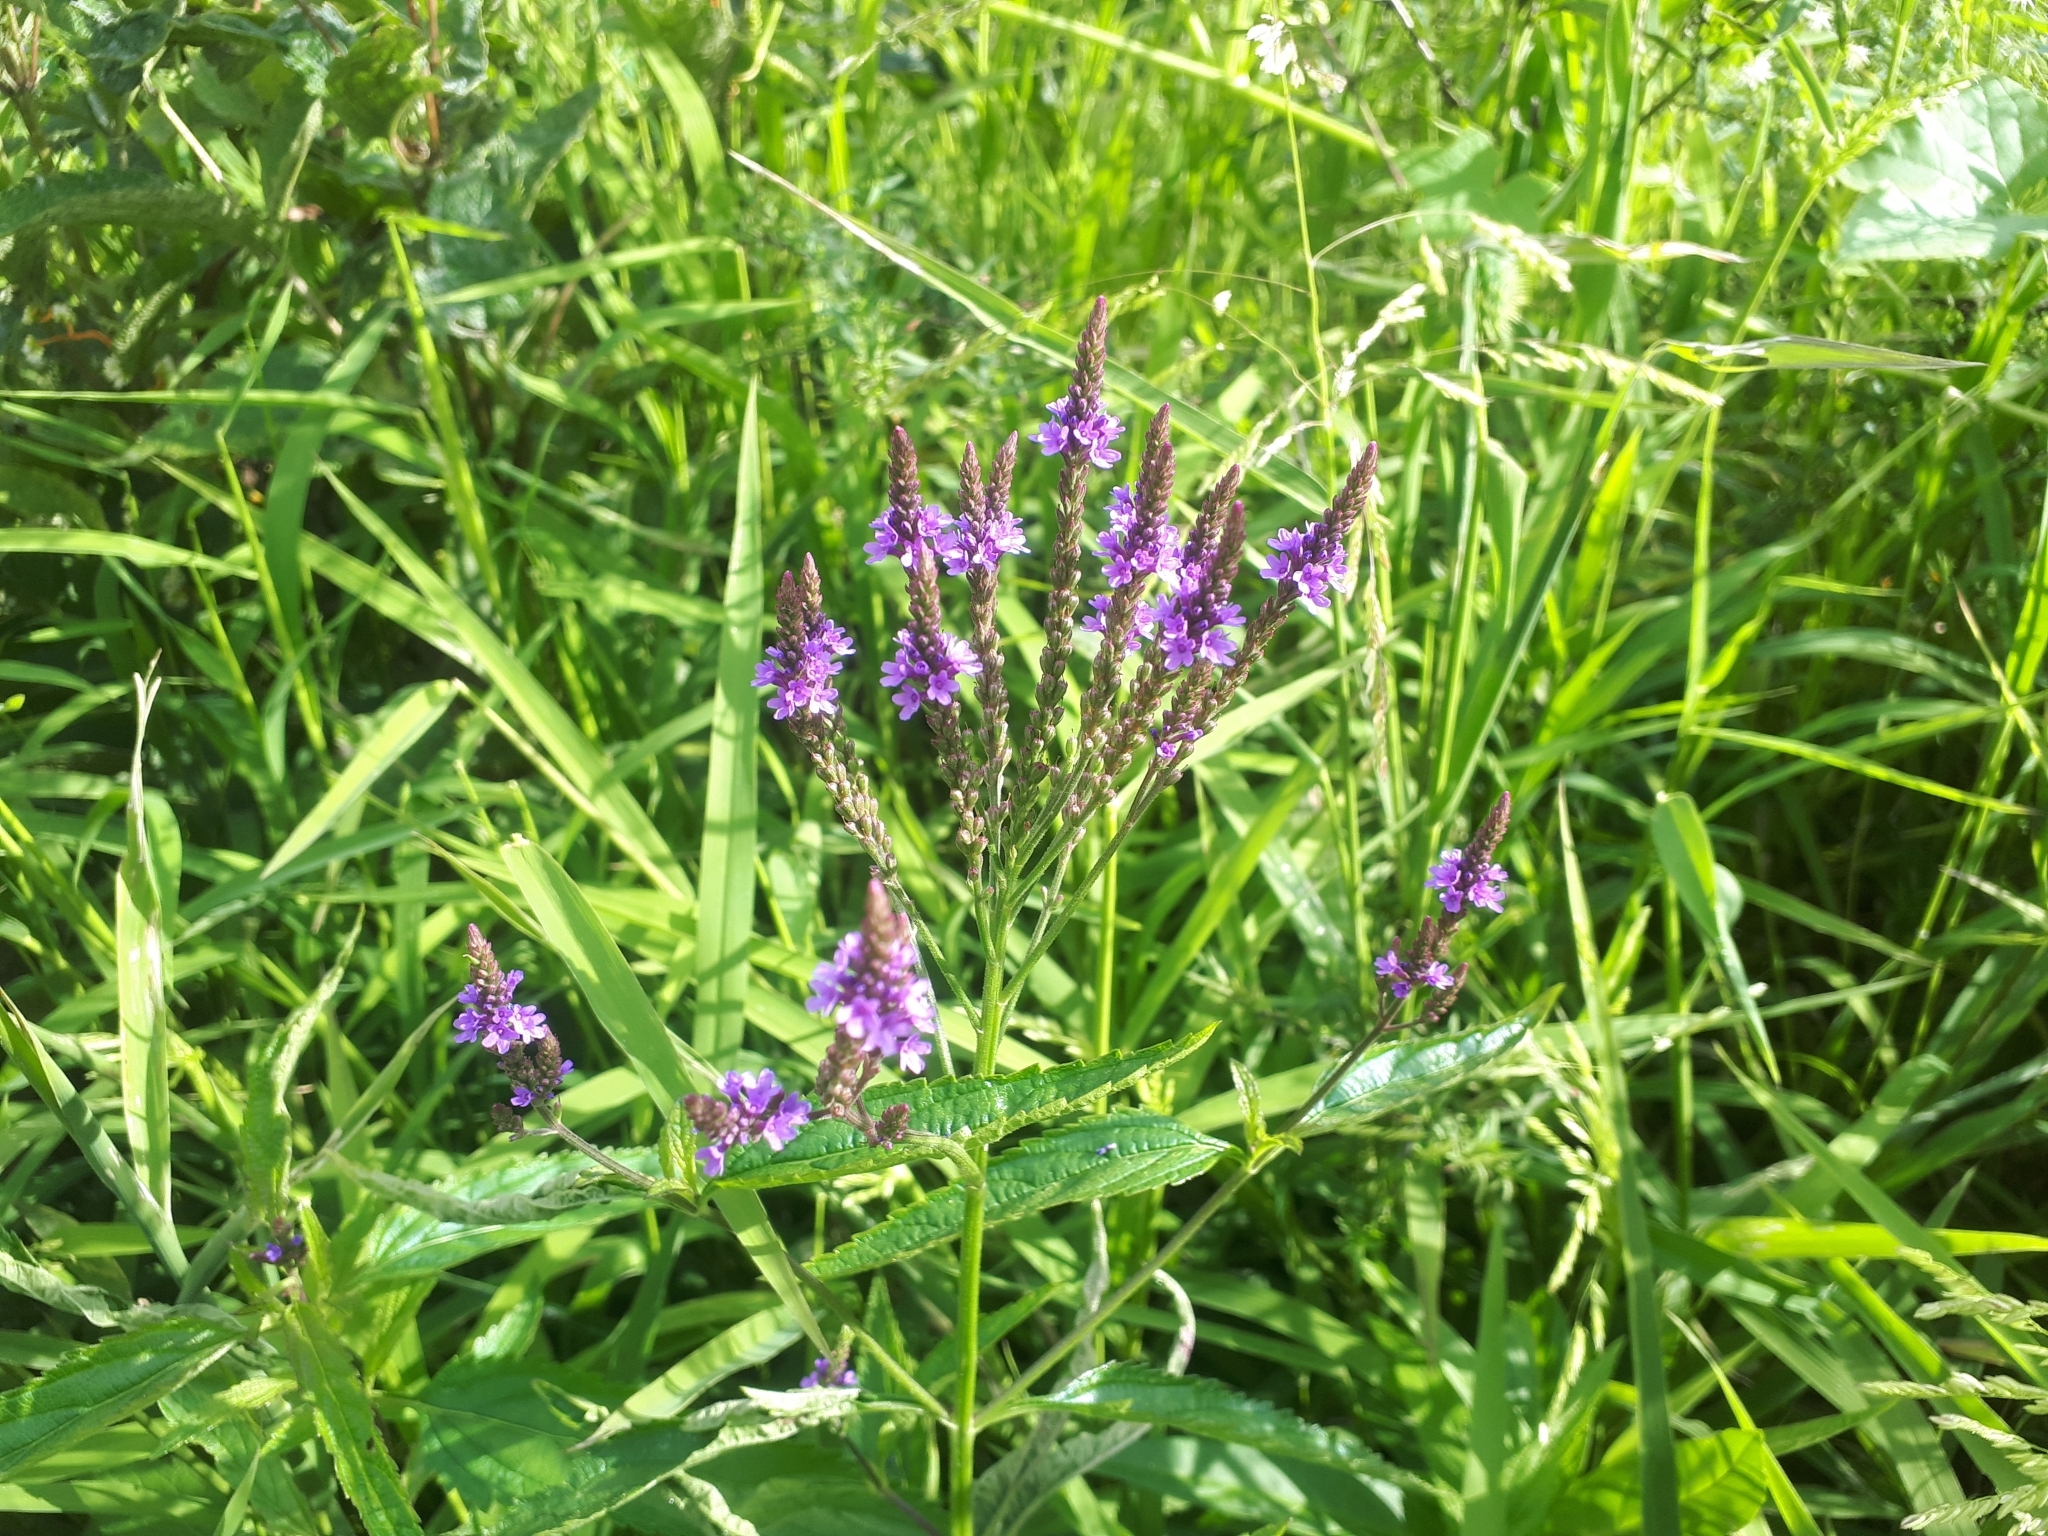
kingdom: Plantae
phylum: Tracheophyta
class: Magnoliopsida
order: Lamiales
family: Verbenaceae
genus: Verbena
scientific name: Verbena hastata
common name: American blue vervain
